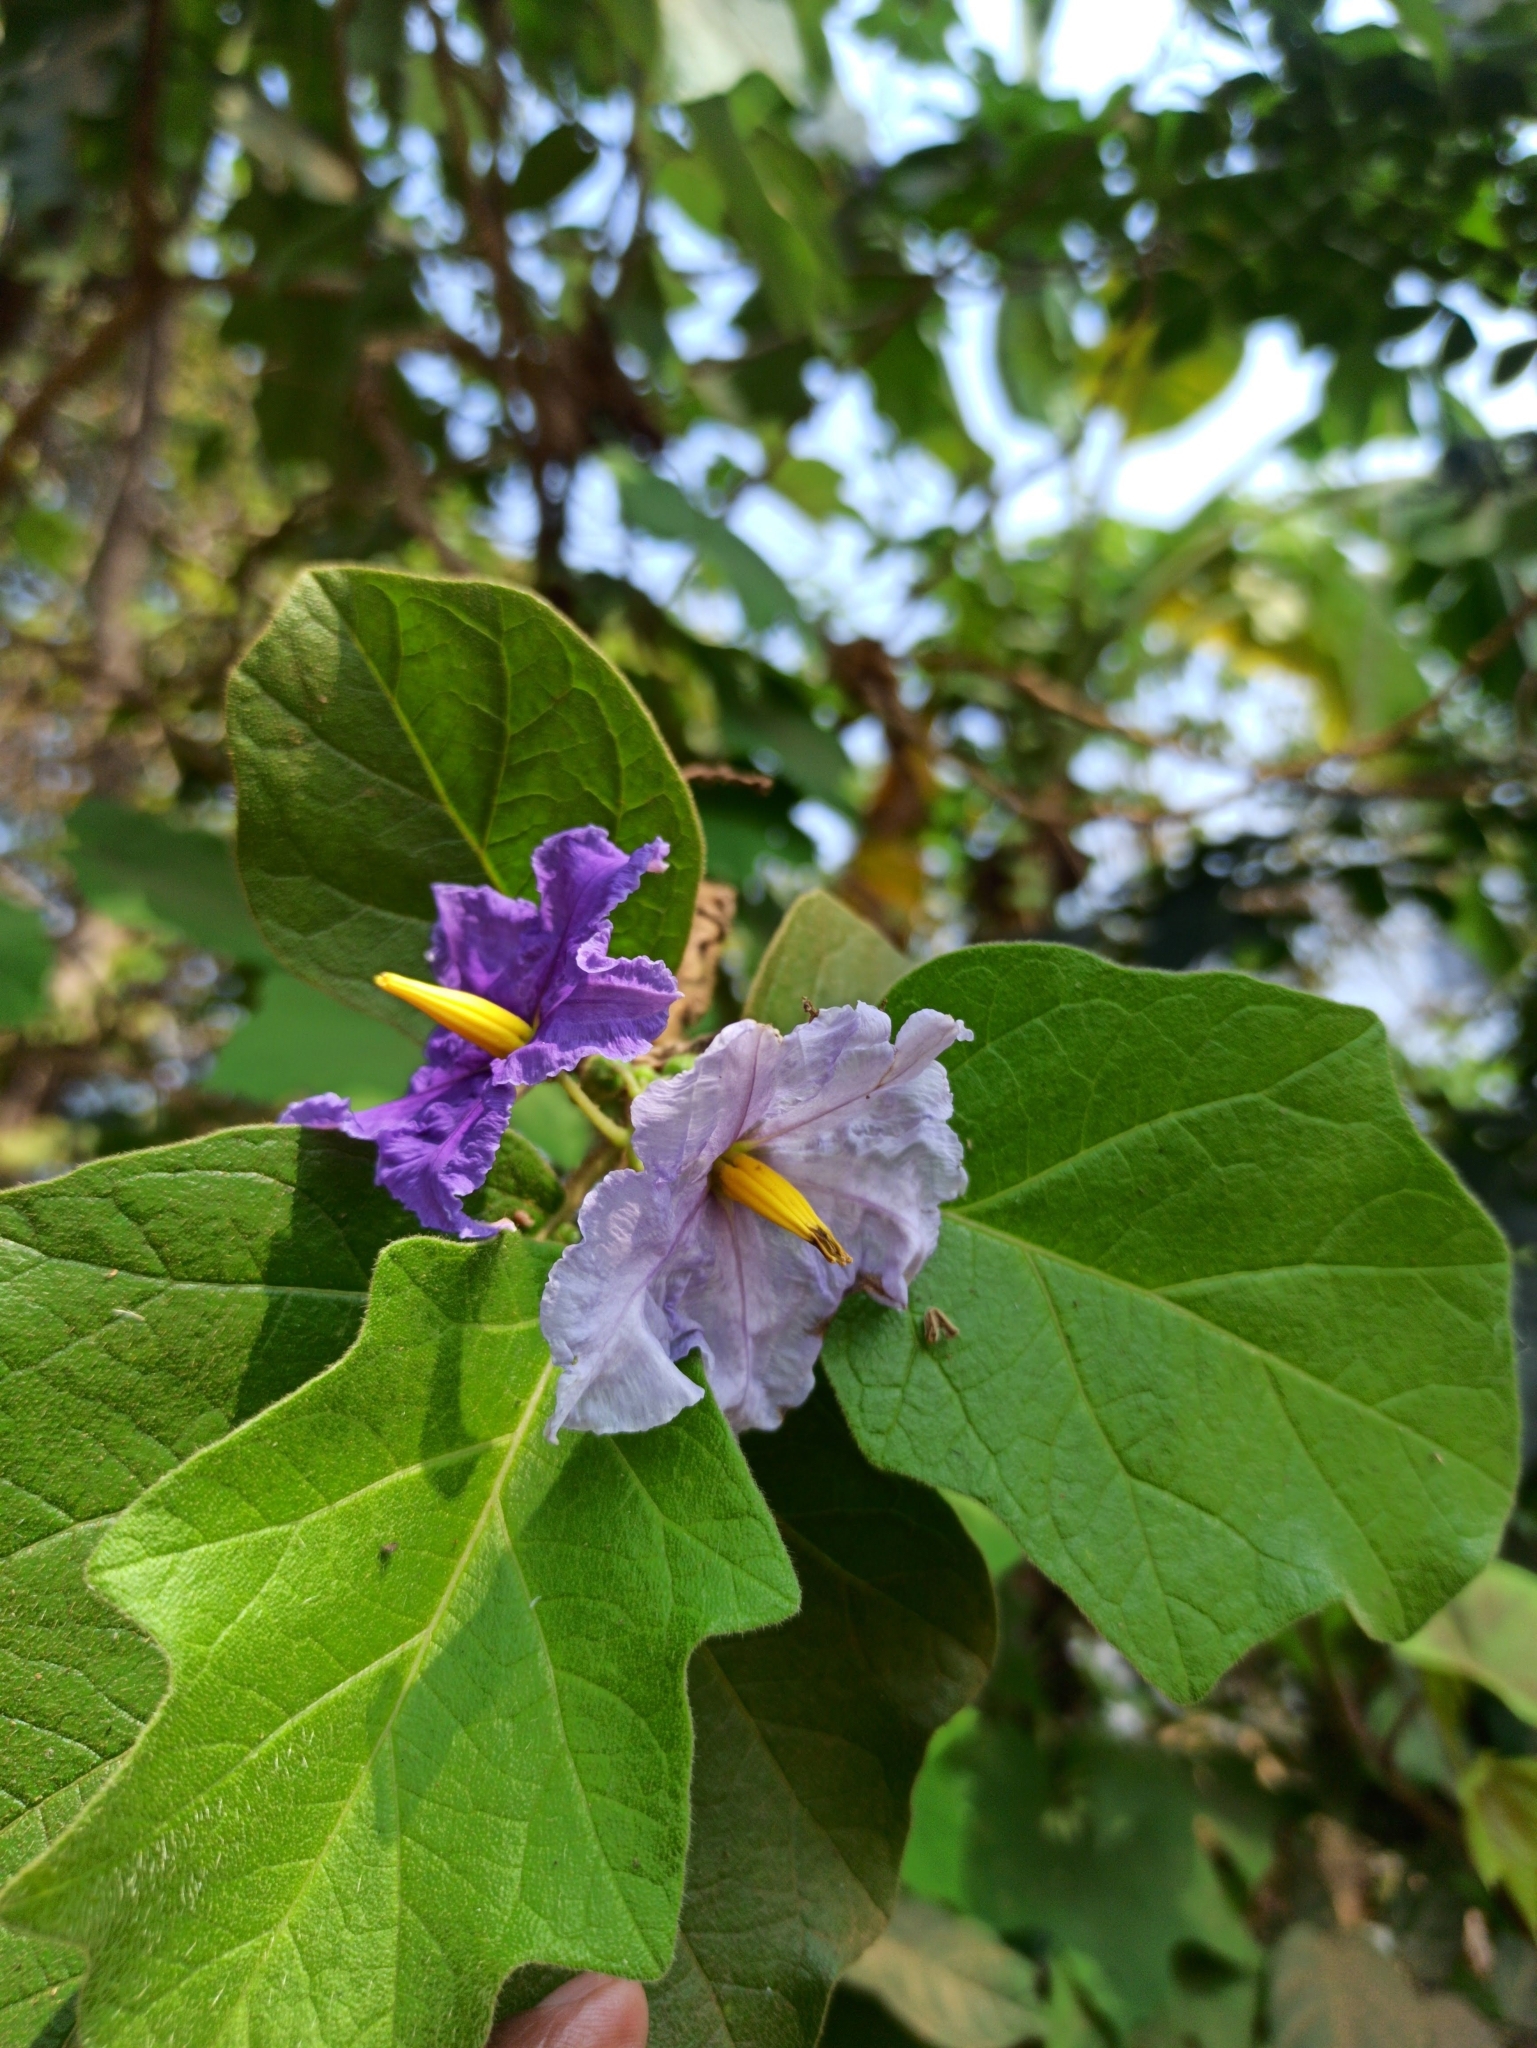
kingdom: Plantae
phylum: Tracheophyta
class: Magnoliopsida
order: Solanales
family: Solanaceae
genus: Solanum
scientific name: Solanum wrightii
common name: Brazilian potato-tree
